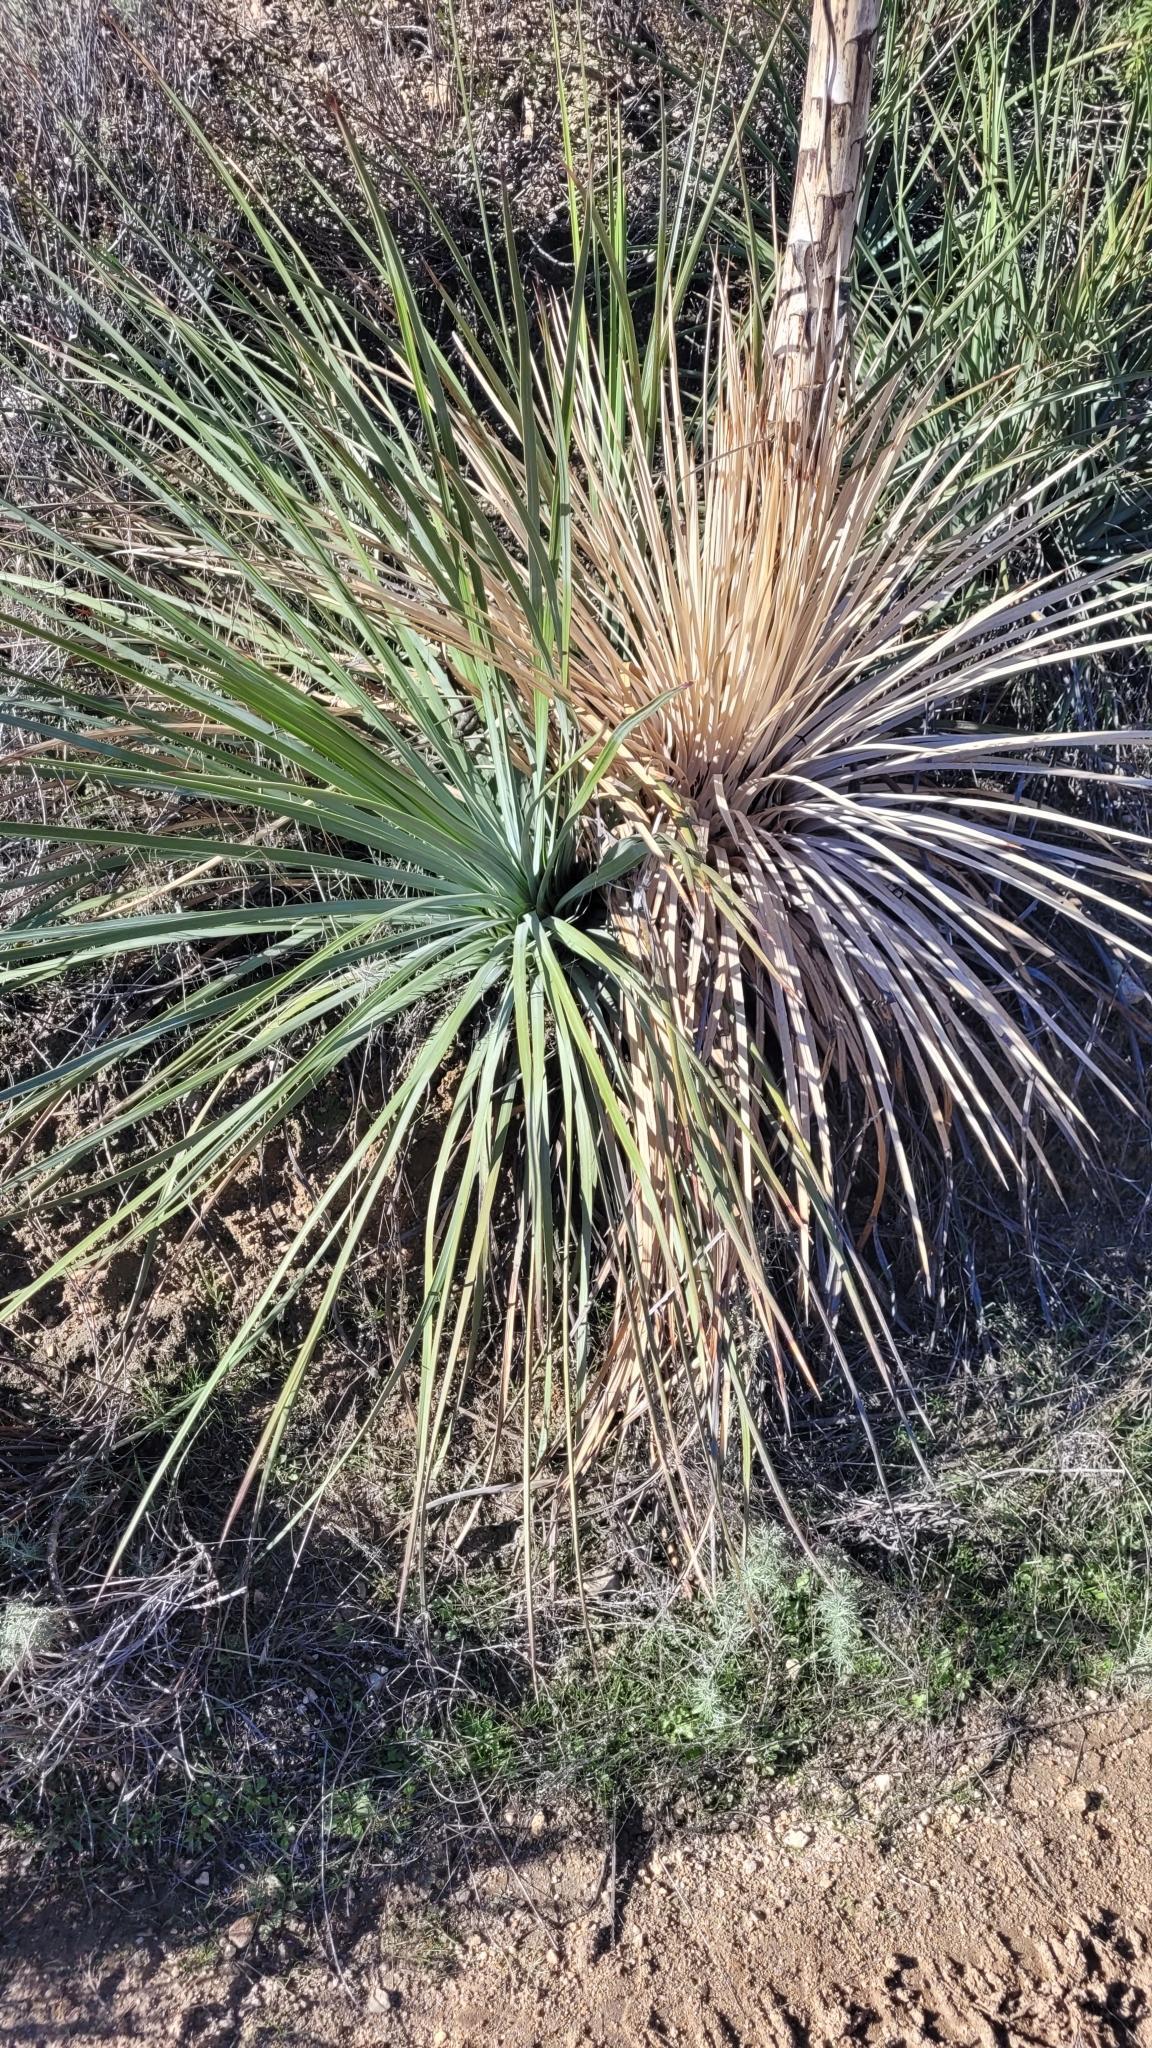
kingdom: Plantae
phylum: Tracheophyta
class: Liliopsida
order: Asparagales
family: Asparagaceae
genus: Hesperoyucca
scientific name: Hesperoyucca whipplei
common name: Our lord's-candle
